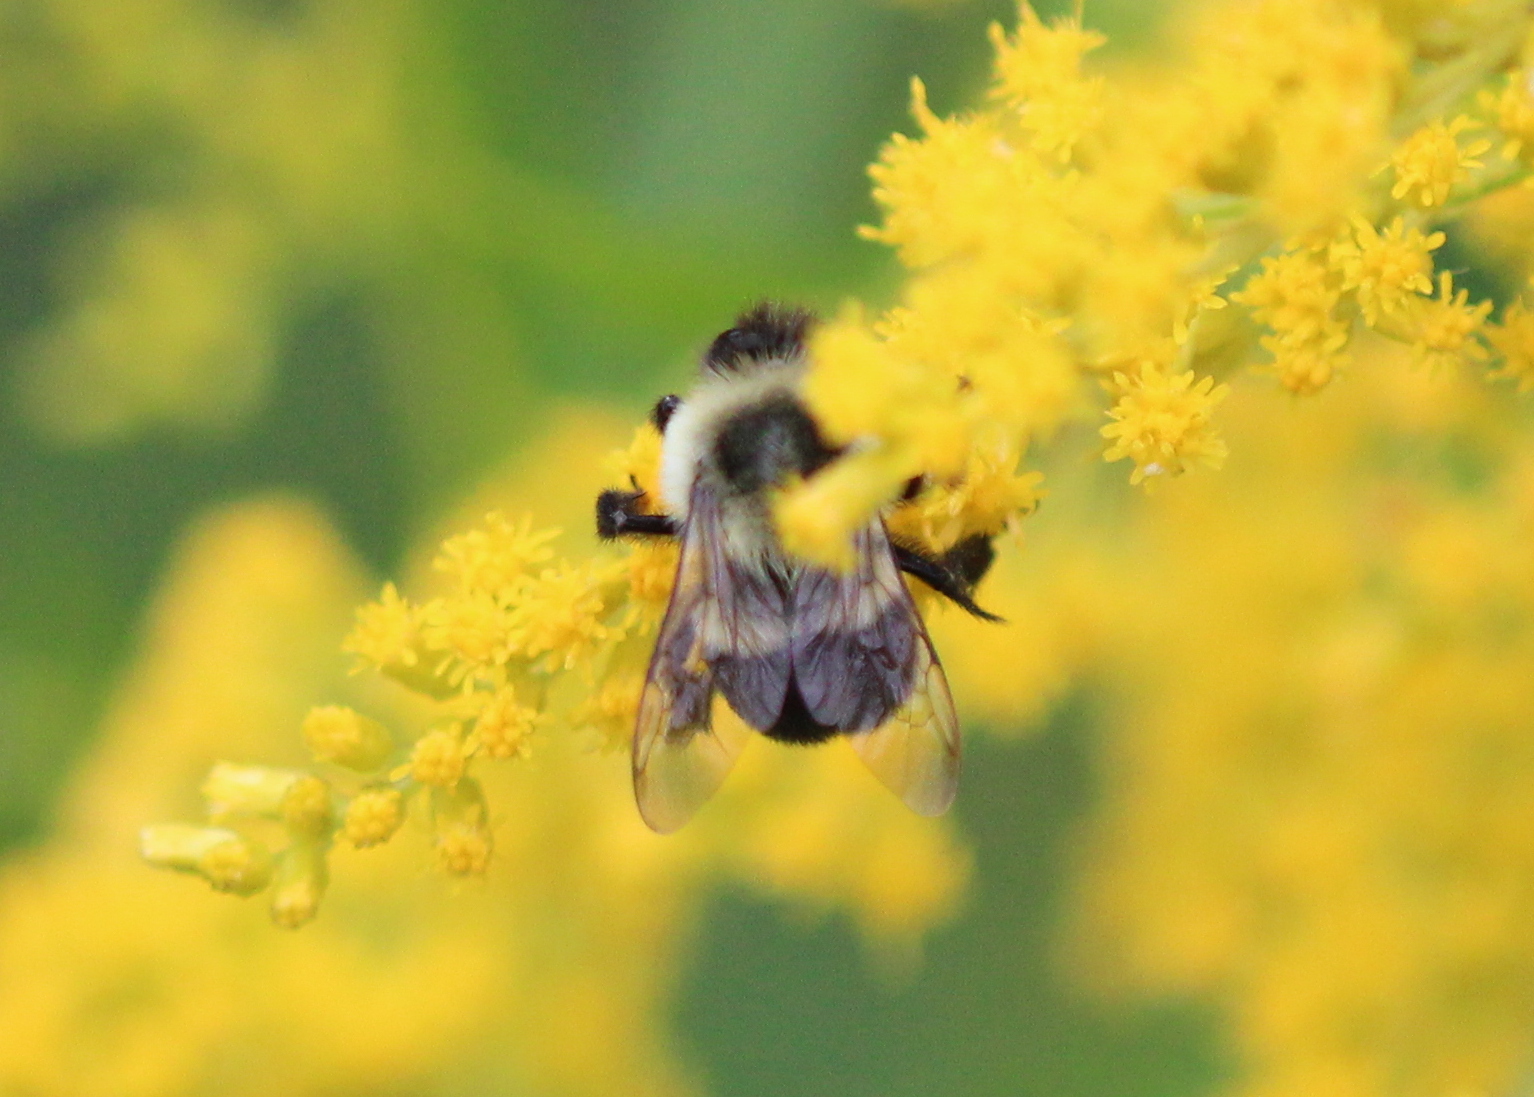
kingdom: Animalia
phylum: Arthropoda
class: Insecta
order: Hymenoptera
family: Apidae
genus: Bombus
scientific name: Bombus impatiens
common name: Common eastern bumble bee
